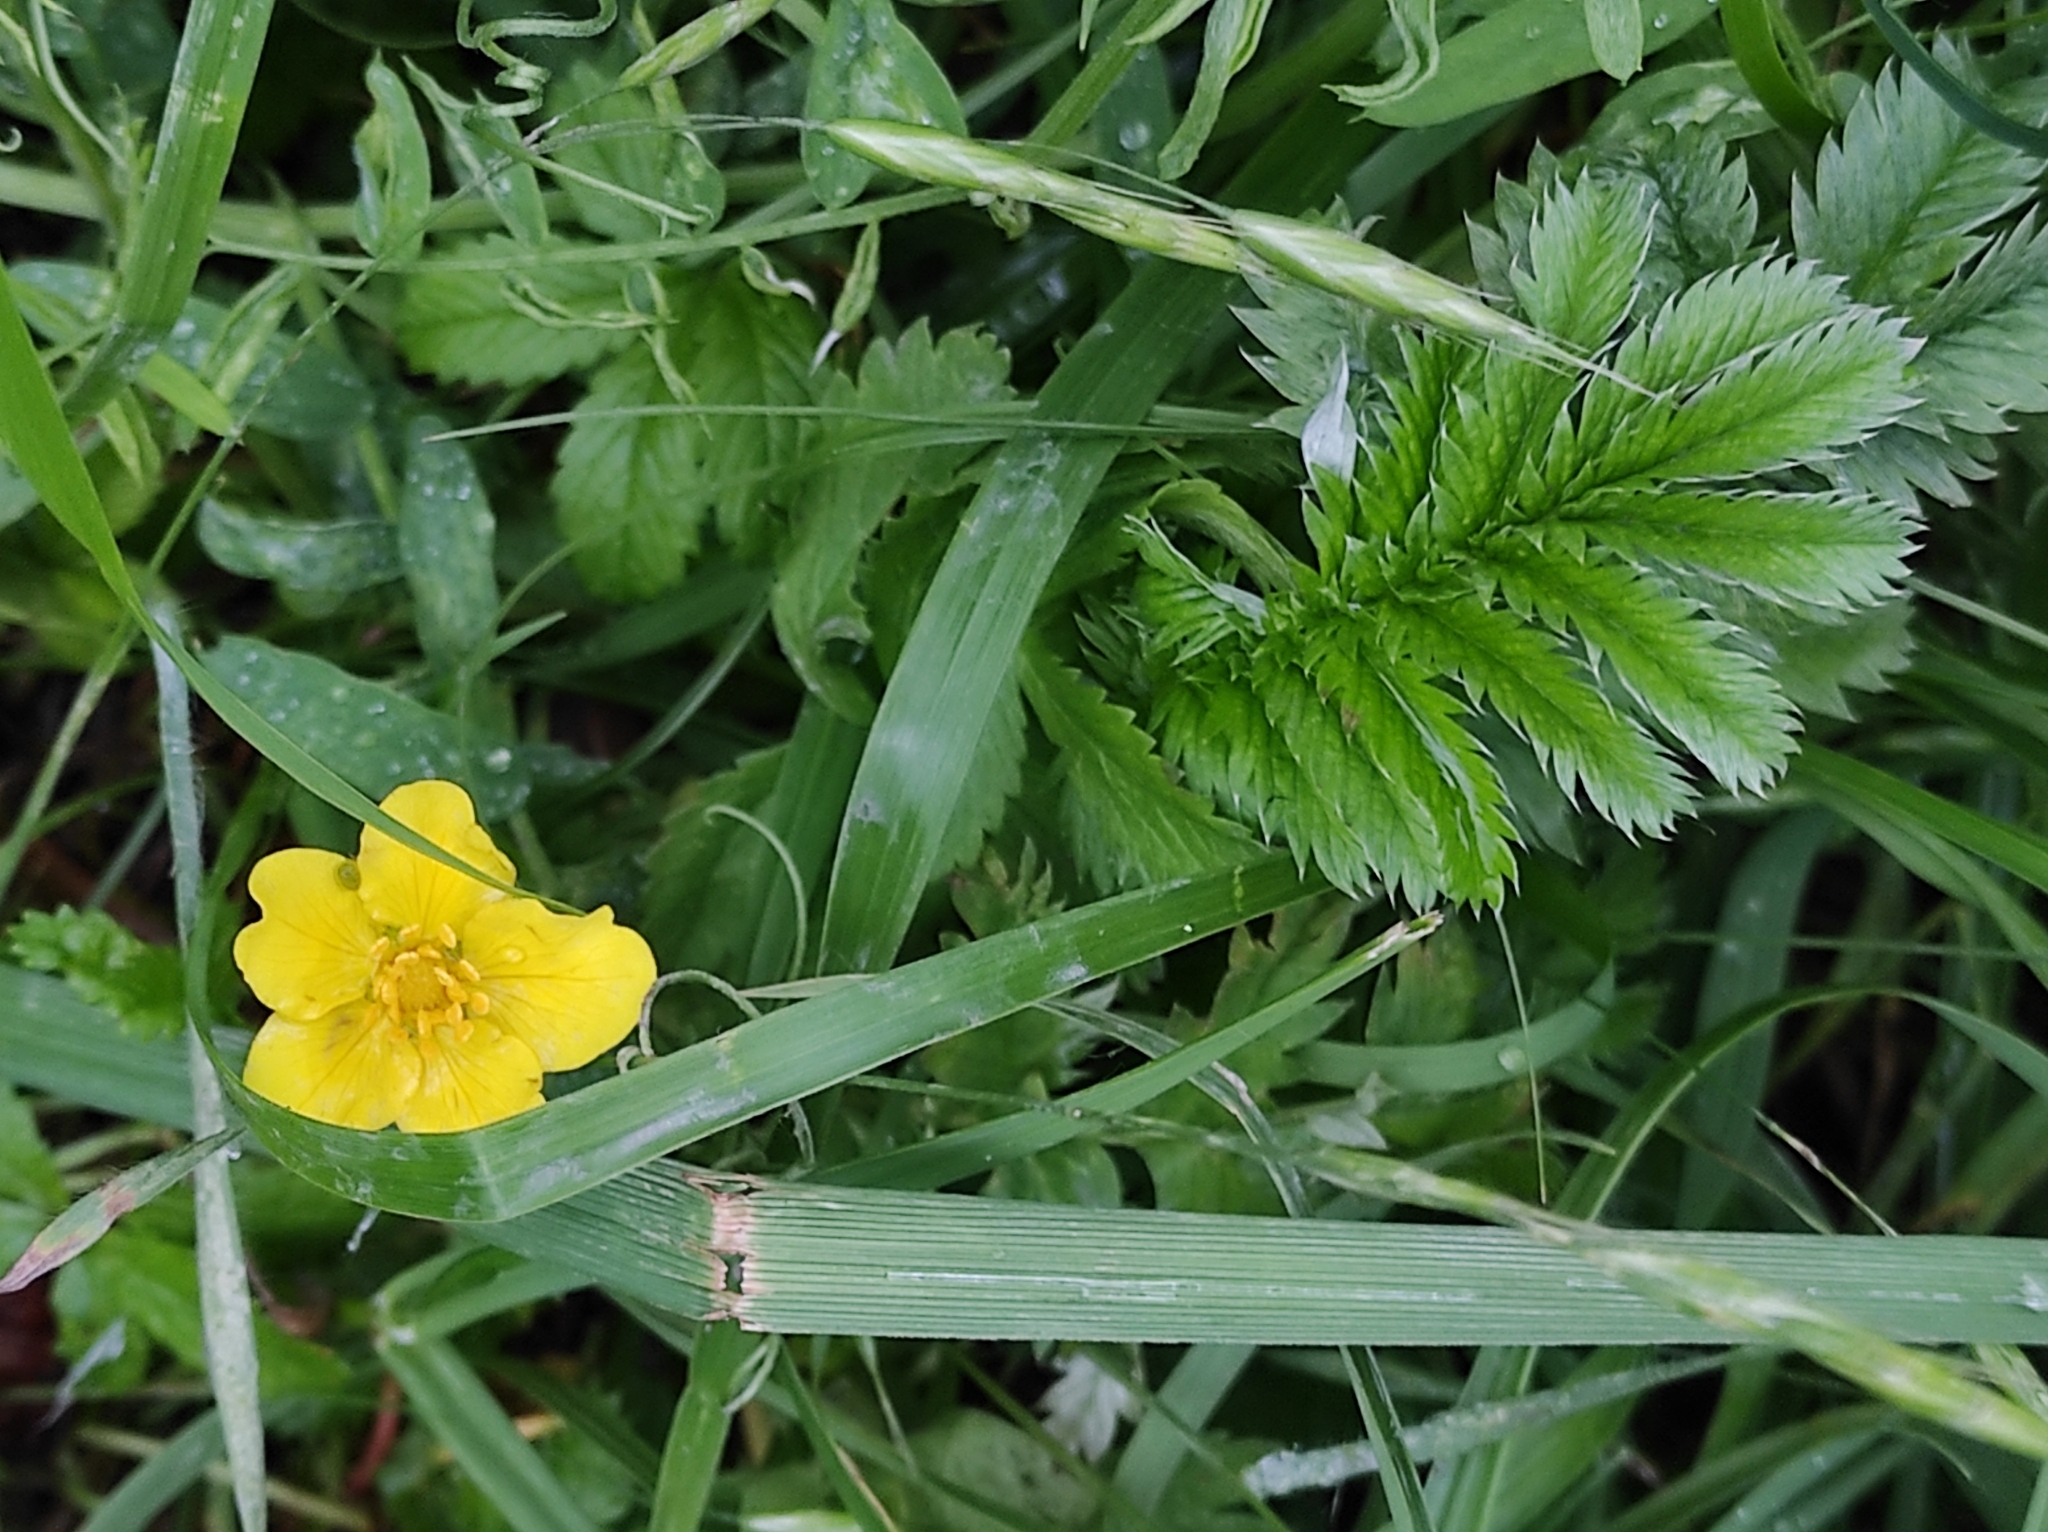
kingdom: Plantae
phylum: Tracheophyta
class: Magnoliopsida
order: Rosales
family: Rosaceae
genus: Argentina
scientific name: Argentina anserina
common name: Common silverweed
